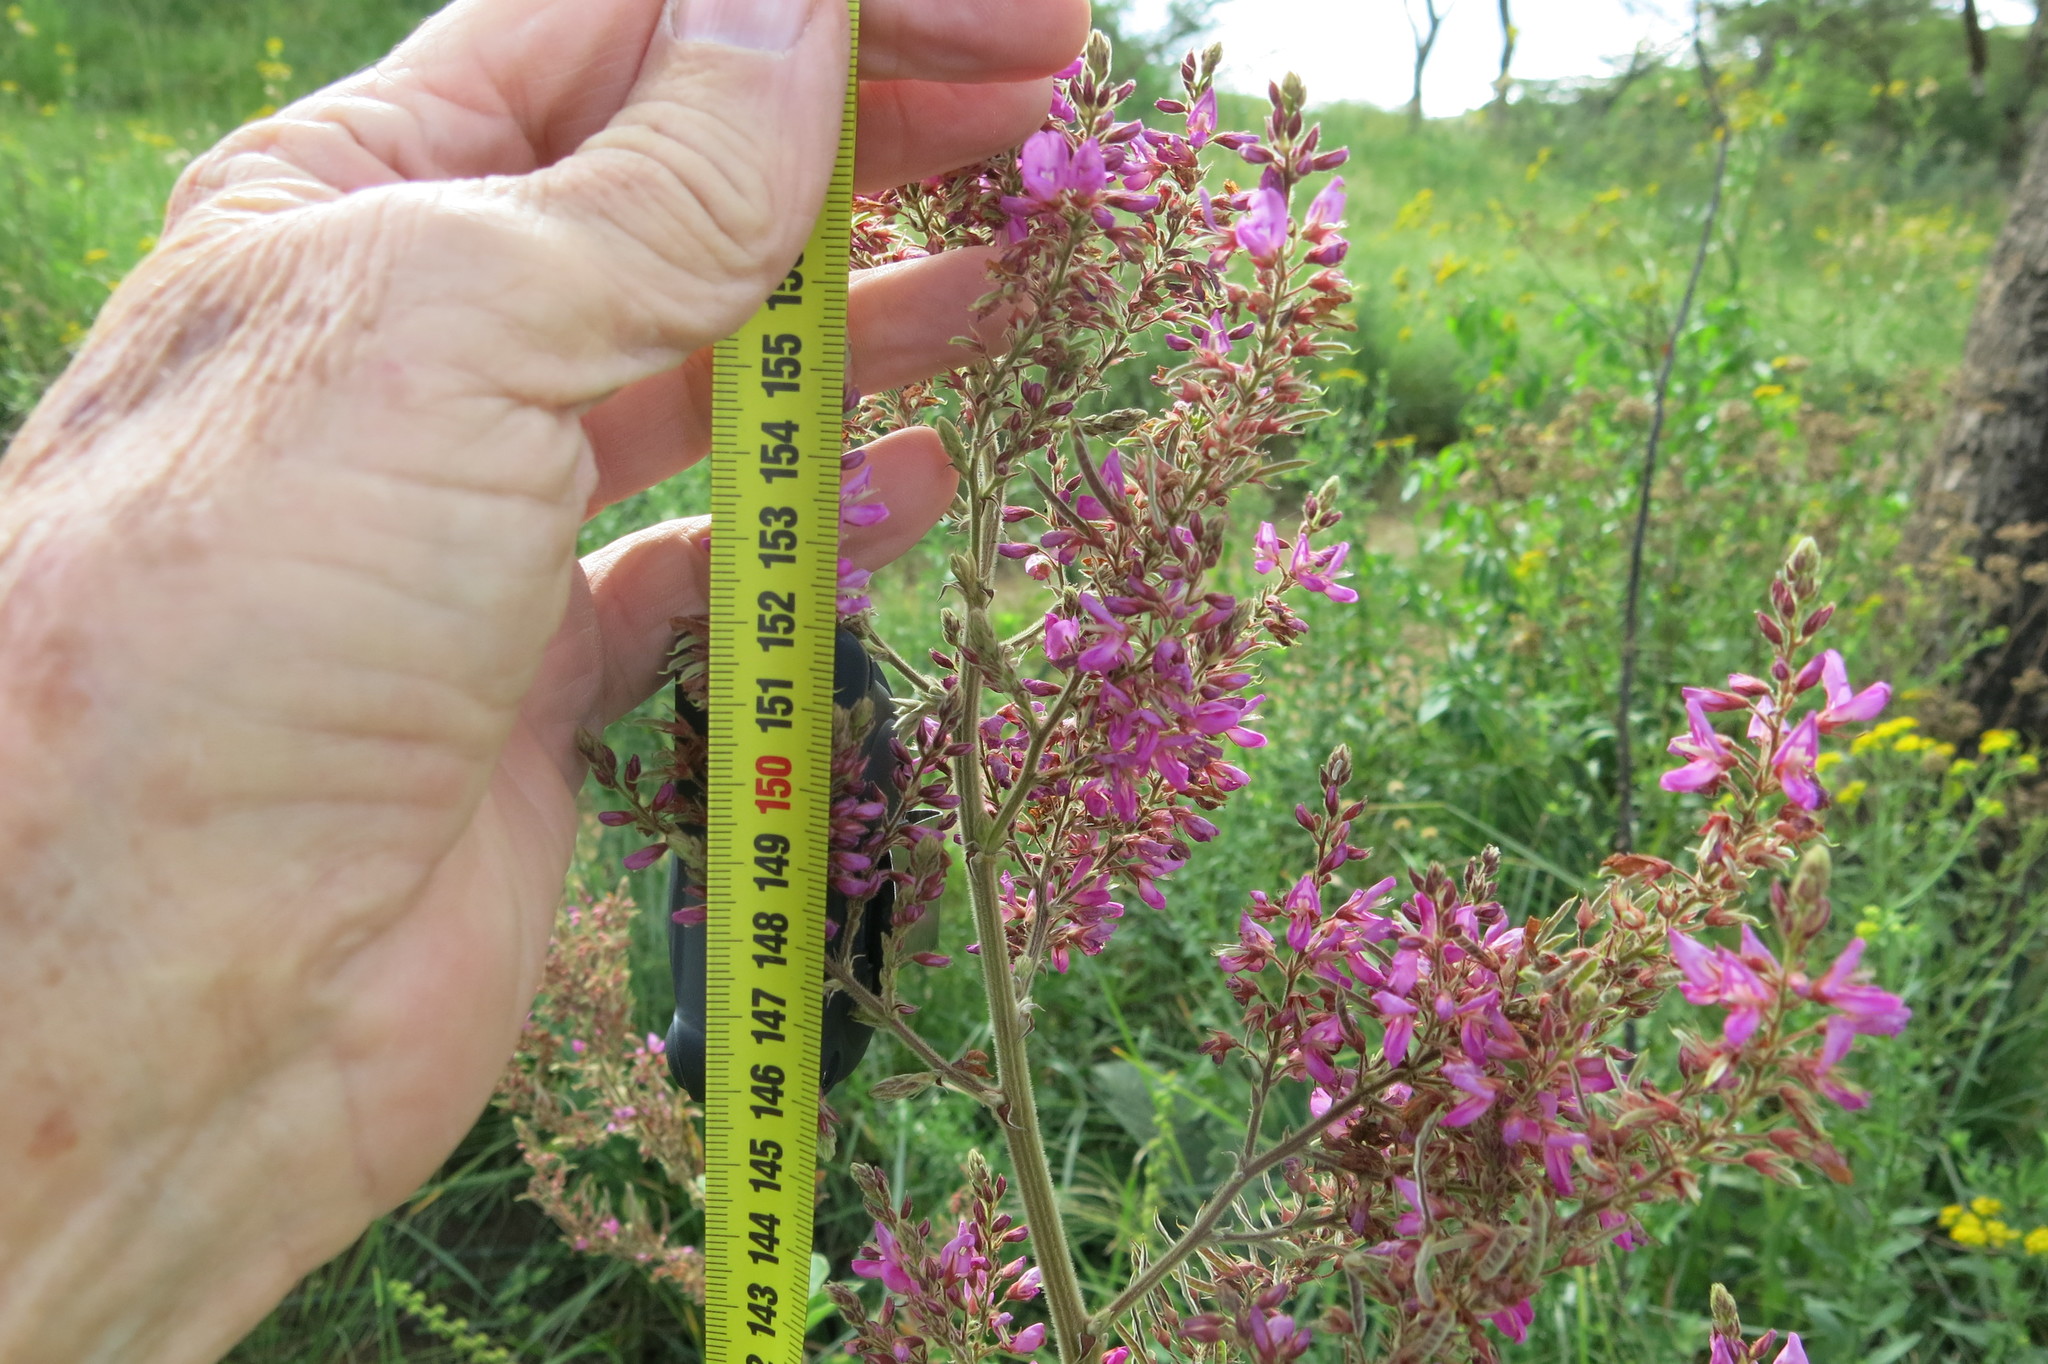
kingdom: Plantae
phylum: Tracheophyta
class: Magnoliopsida
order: Fabales
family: Fabaceae
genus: Pseudarthria
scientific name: Pseudarthria hookeri
